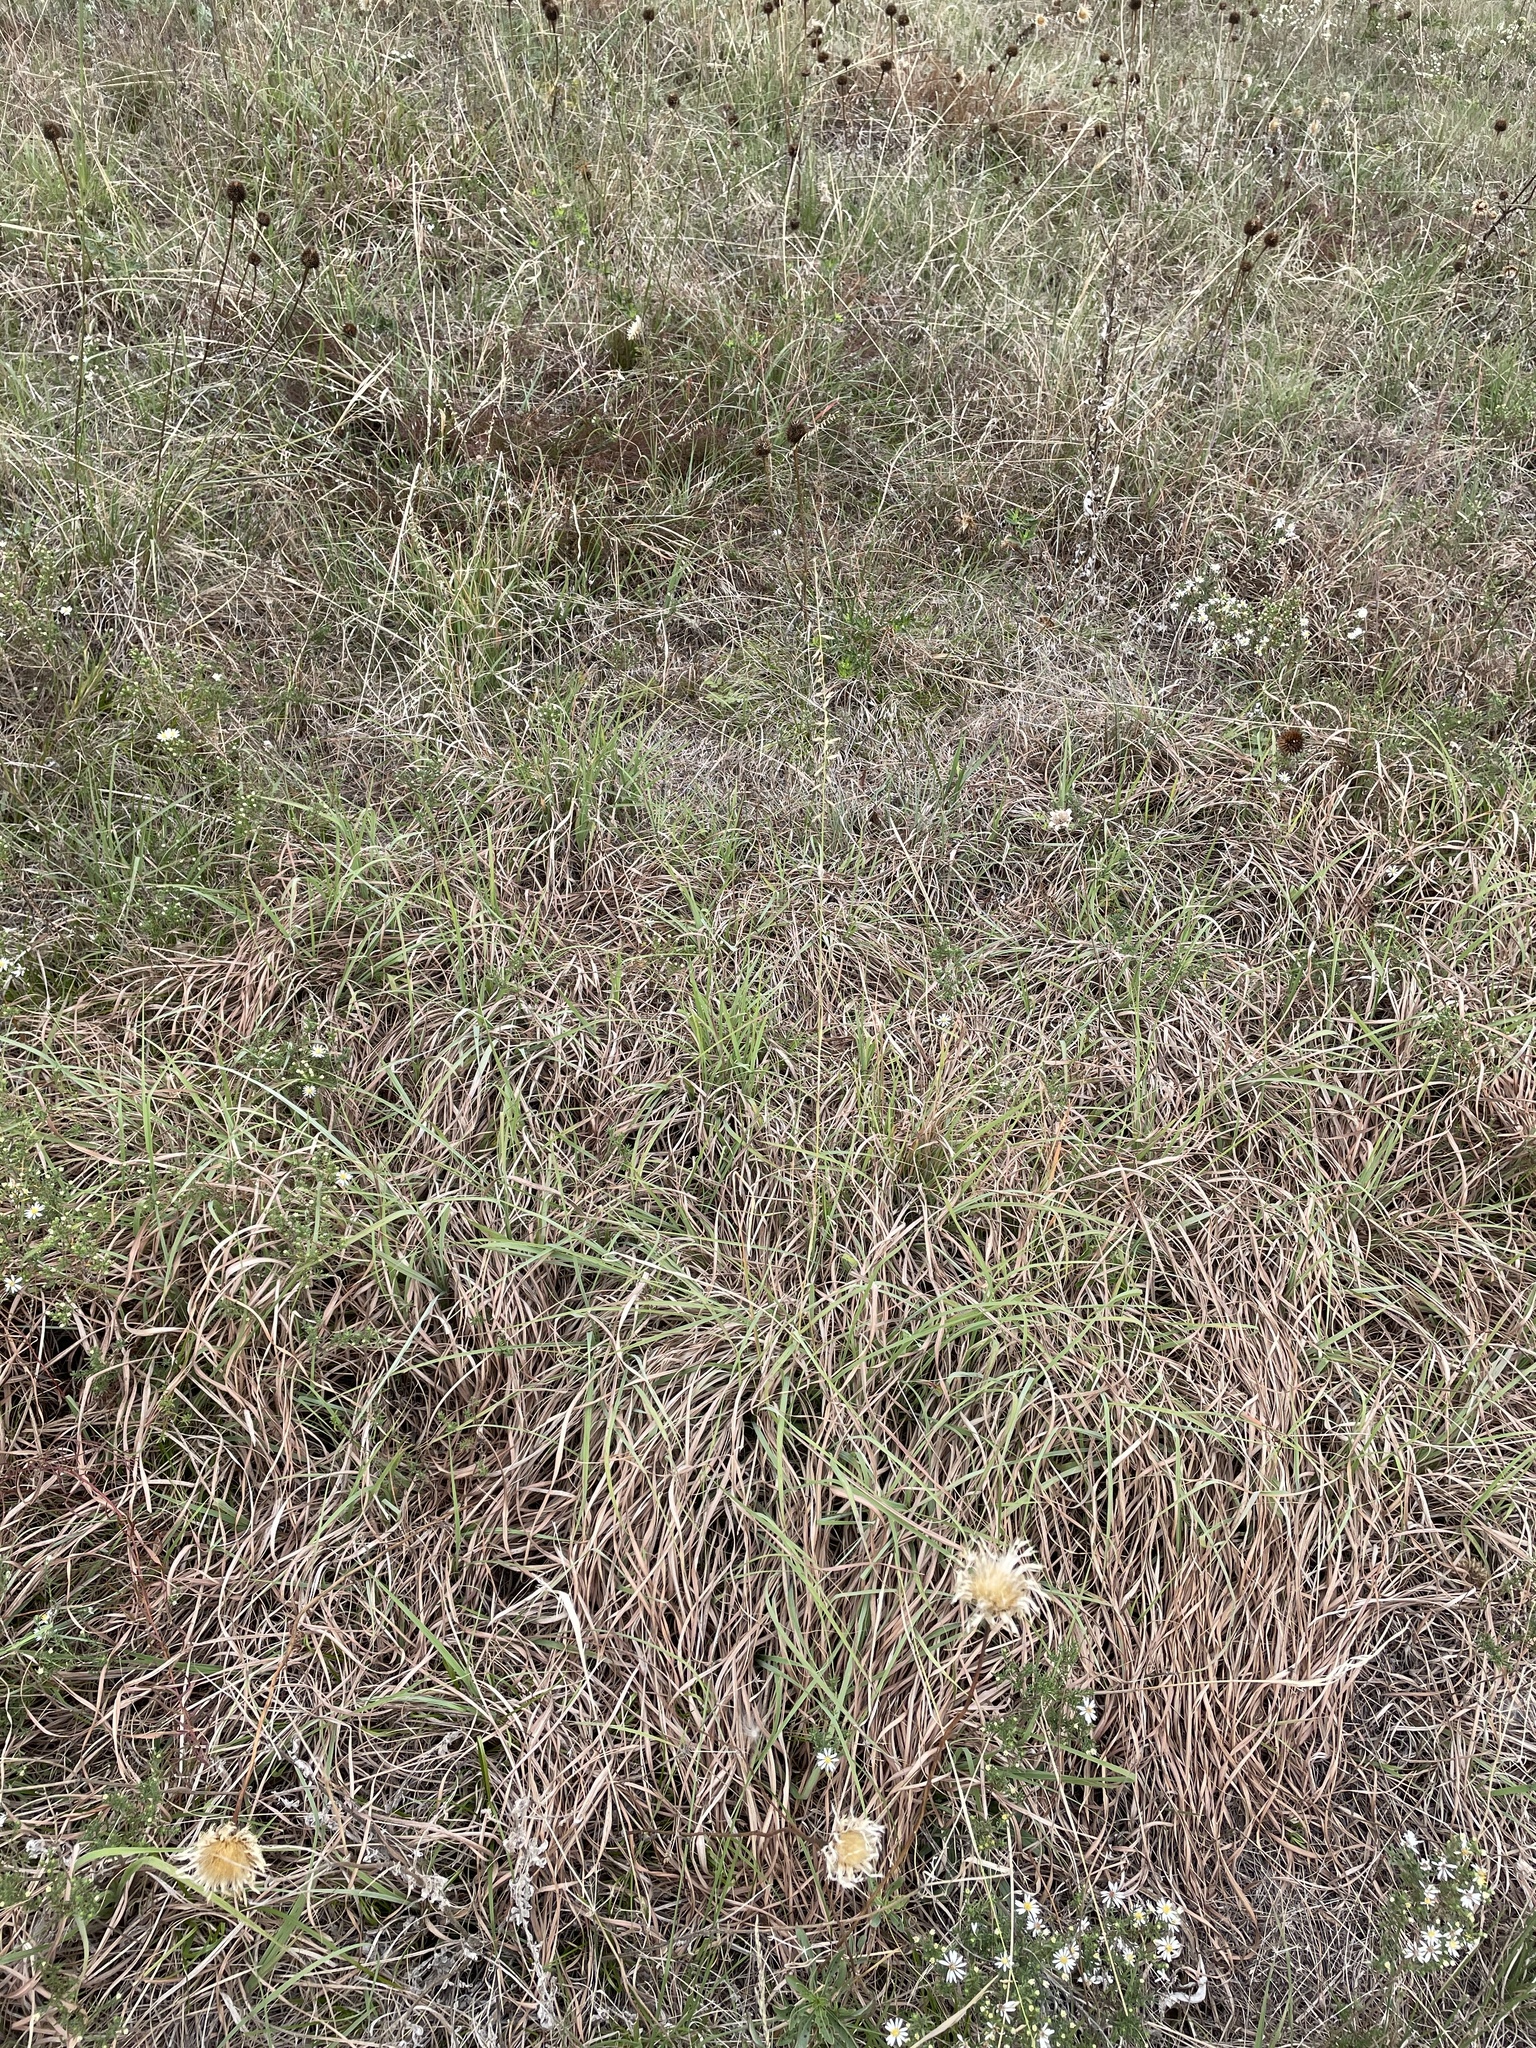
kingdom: Plantae
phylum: Tracheophyta
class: Liliopsida
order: Poales
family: Poaceae
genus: Bouteloua
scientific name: Bouteloua curtipendula
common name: Side-oats grama
